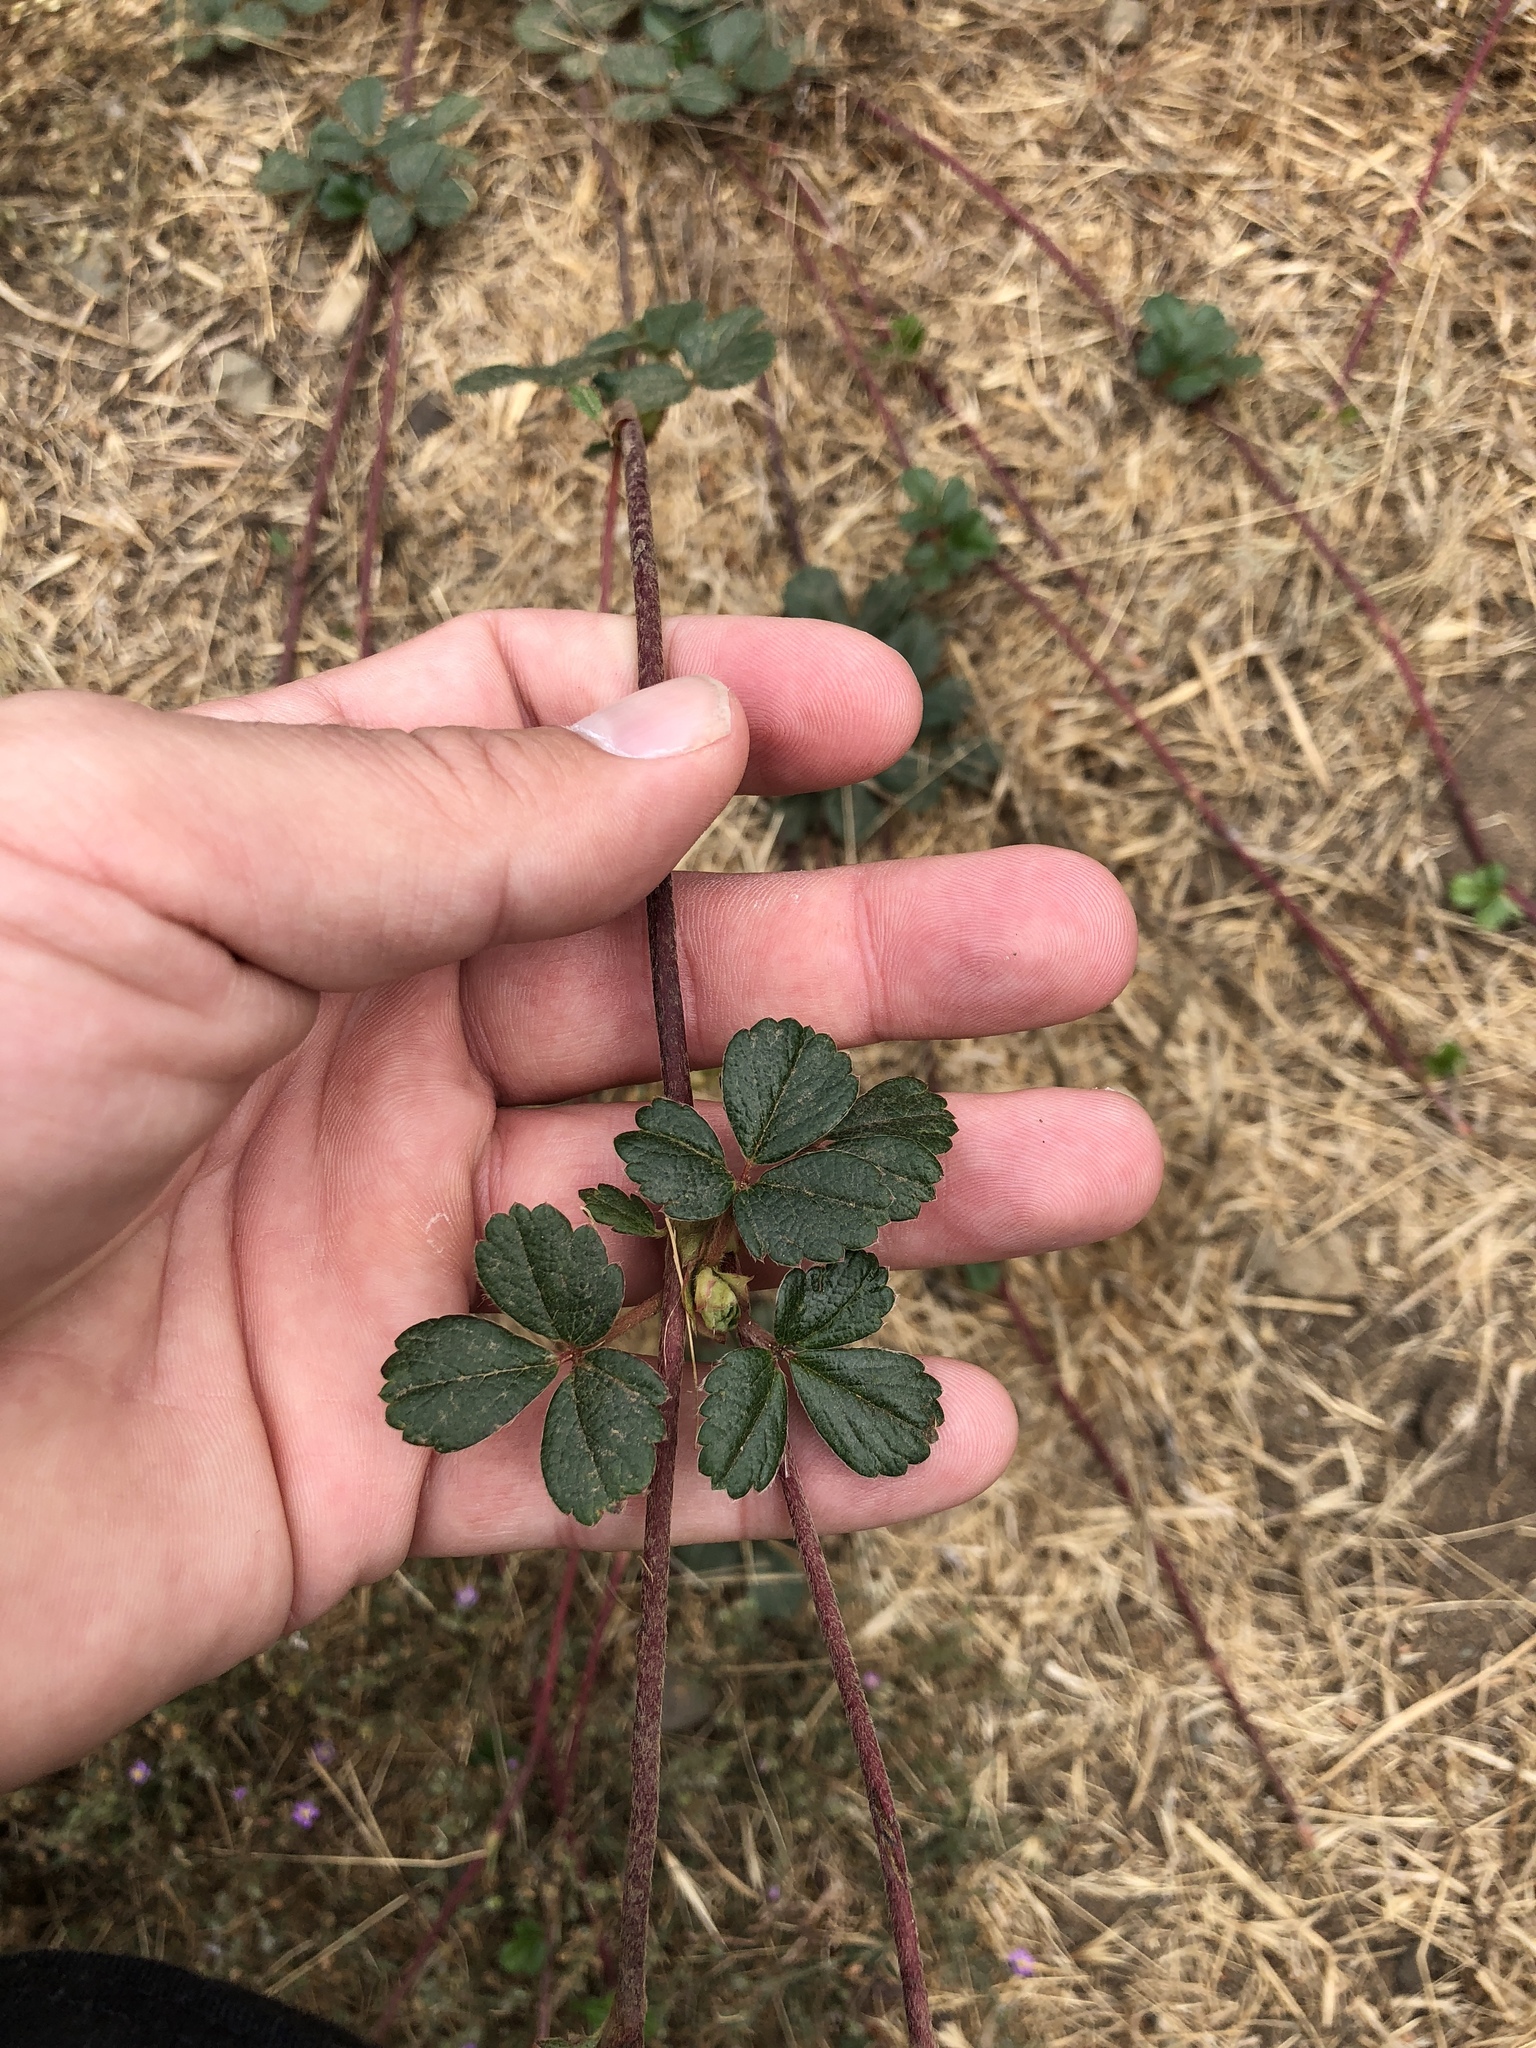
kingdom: Plantae
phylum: Tracheophyta
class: Magnoliopsida
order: Rosales
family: Rosaceae
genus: Fragaria
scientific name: Fragaria chiloensis
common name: Beach strawberry
